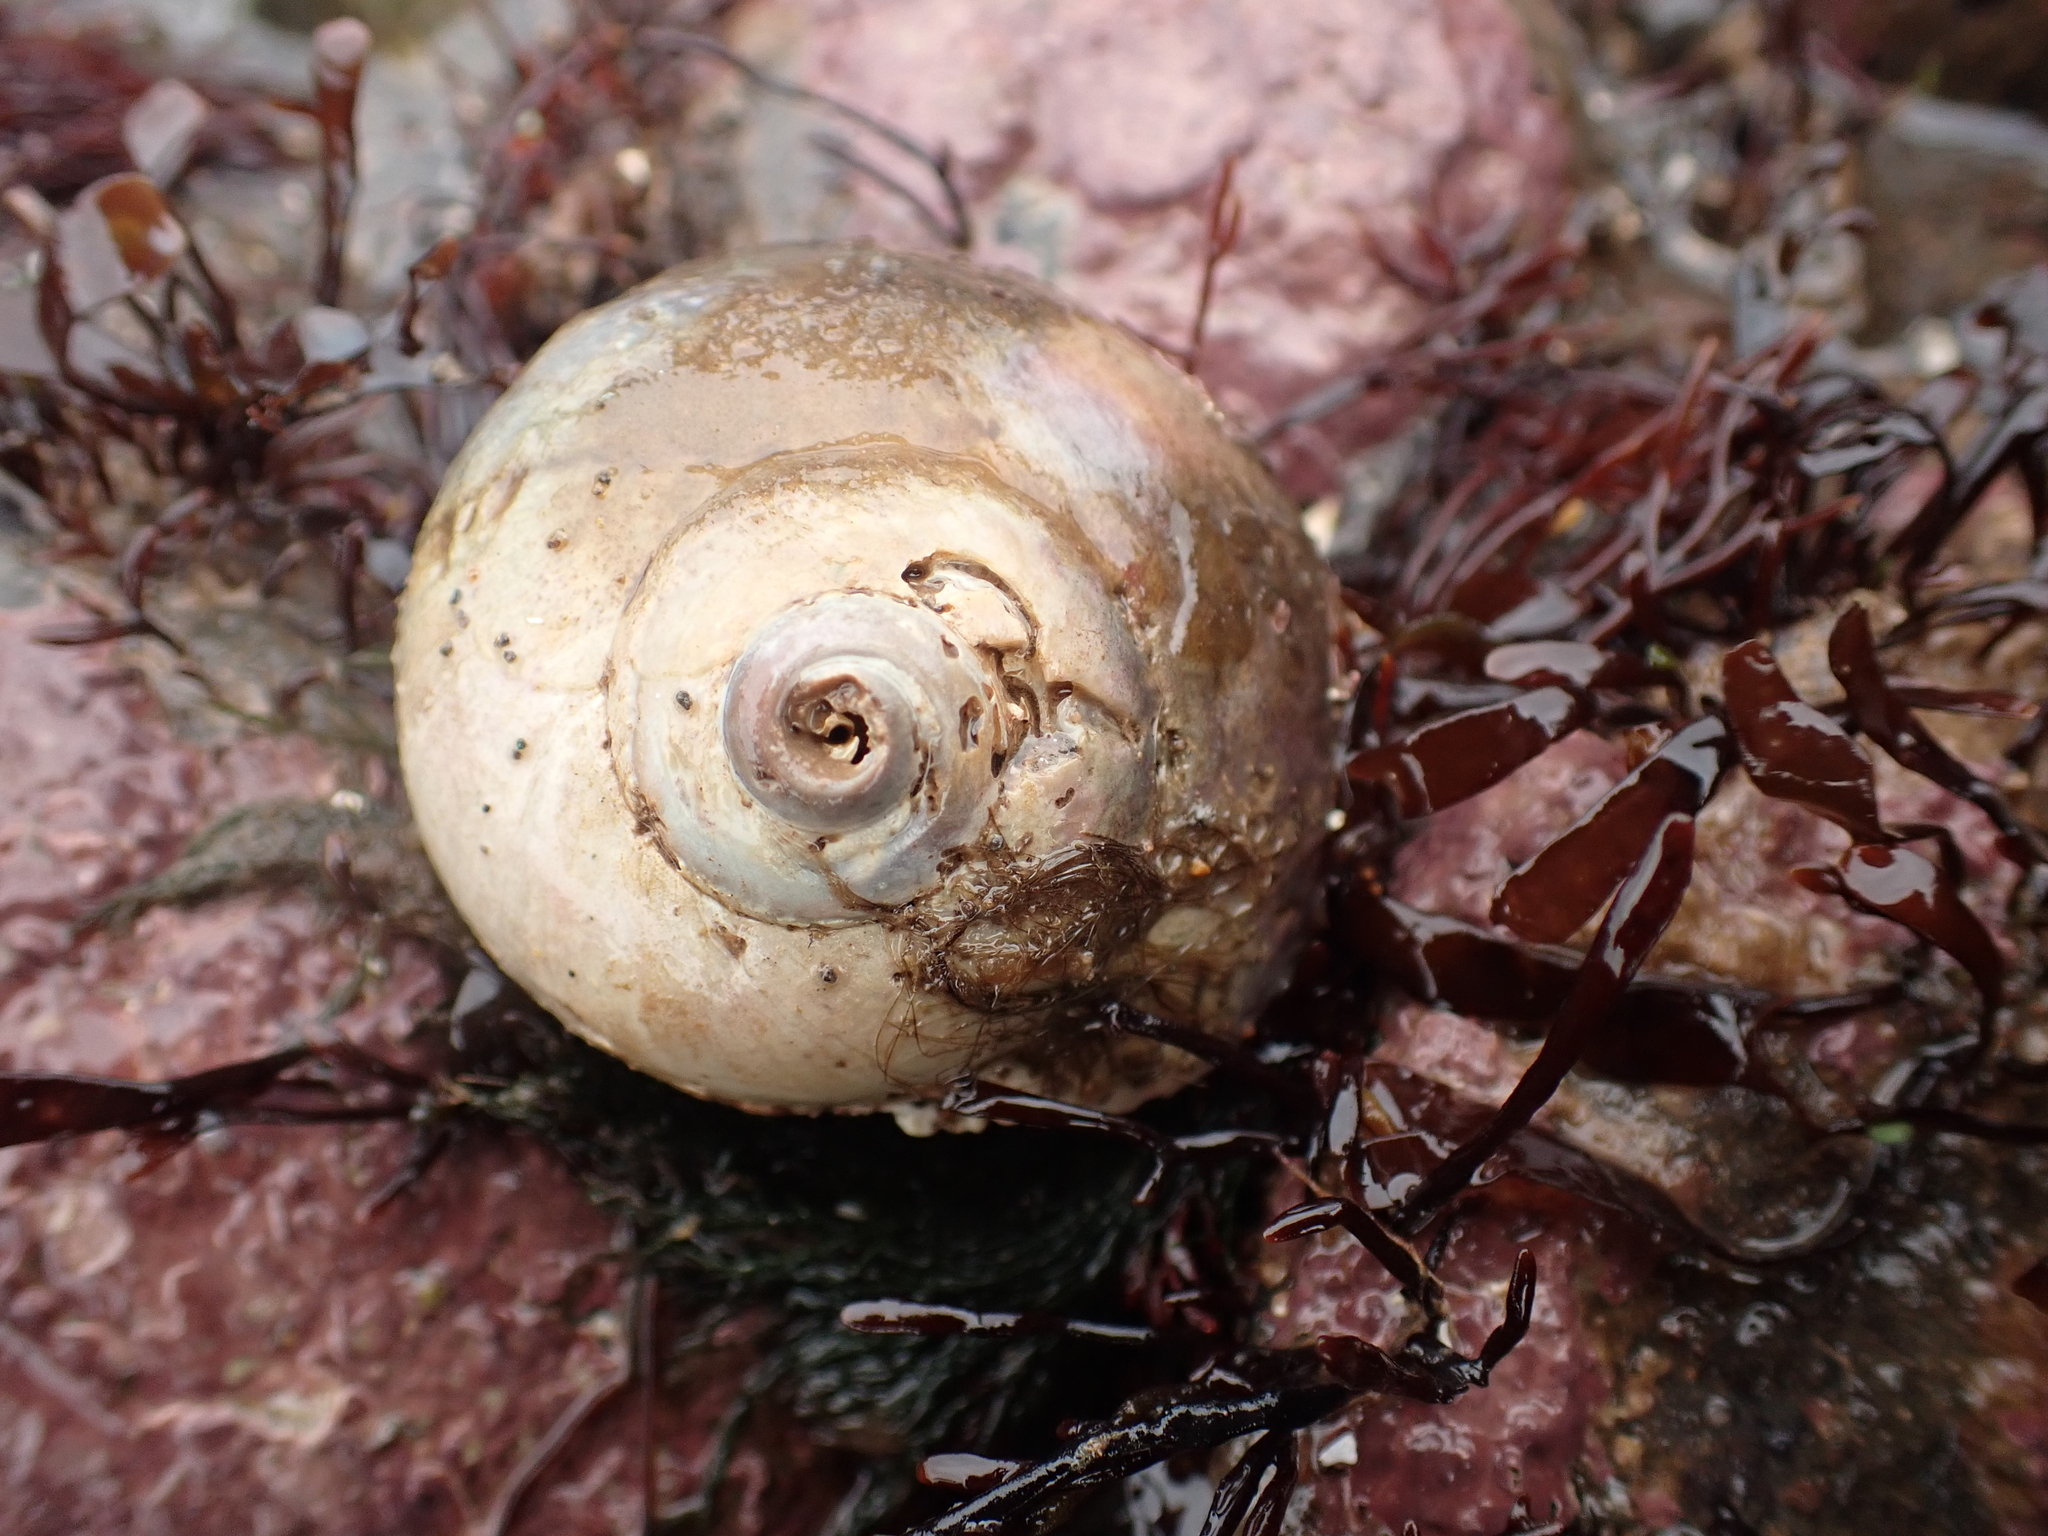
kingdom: Animalia
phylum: Mollusca
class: Gastropoda
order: Littorinimorpha
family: Naticidae
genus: Euspira
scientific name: Euspira heros
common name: Common northern moonsnail
